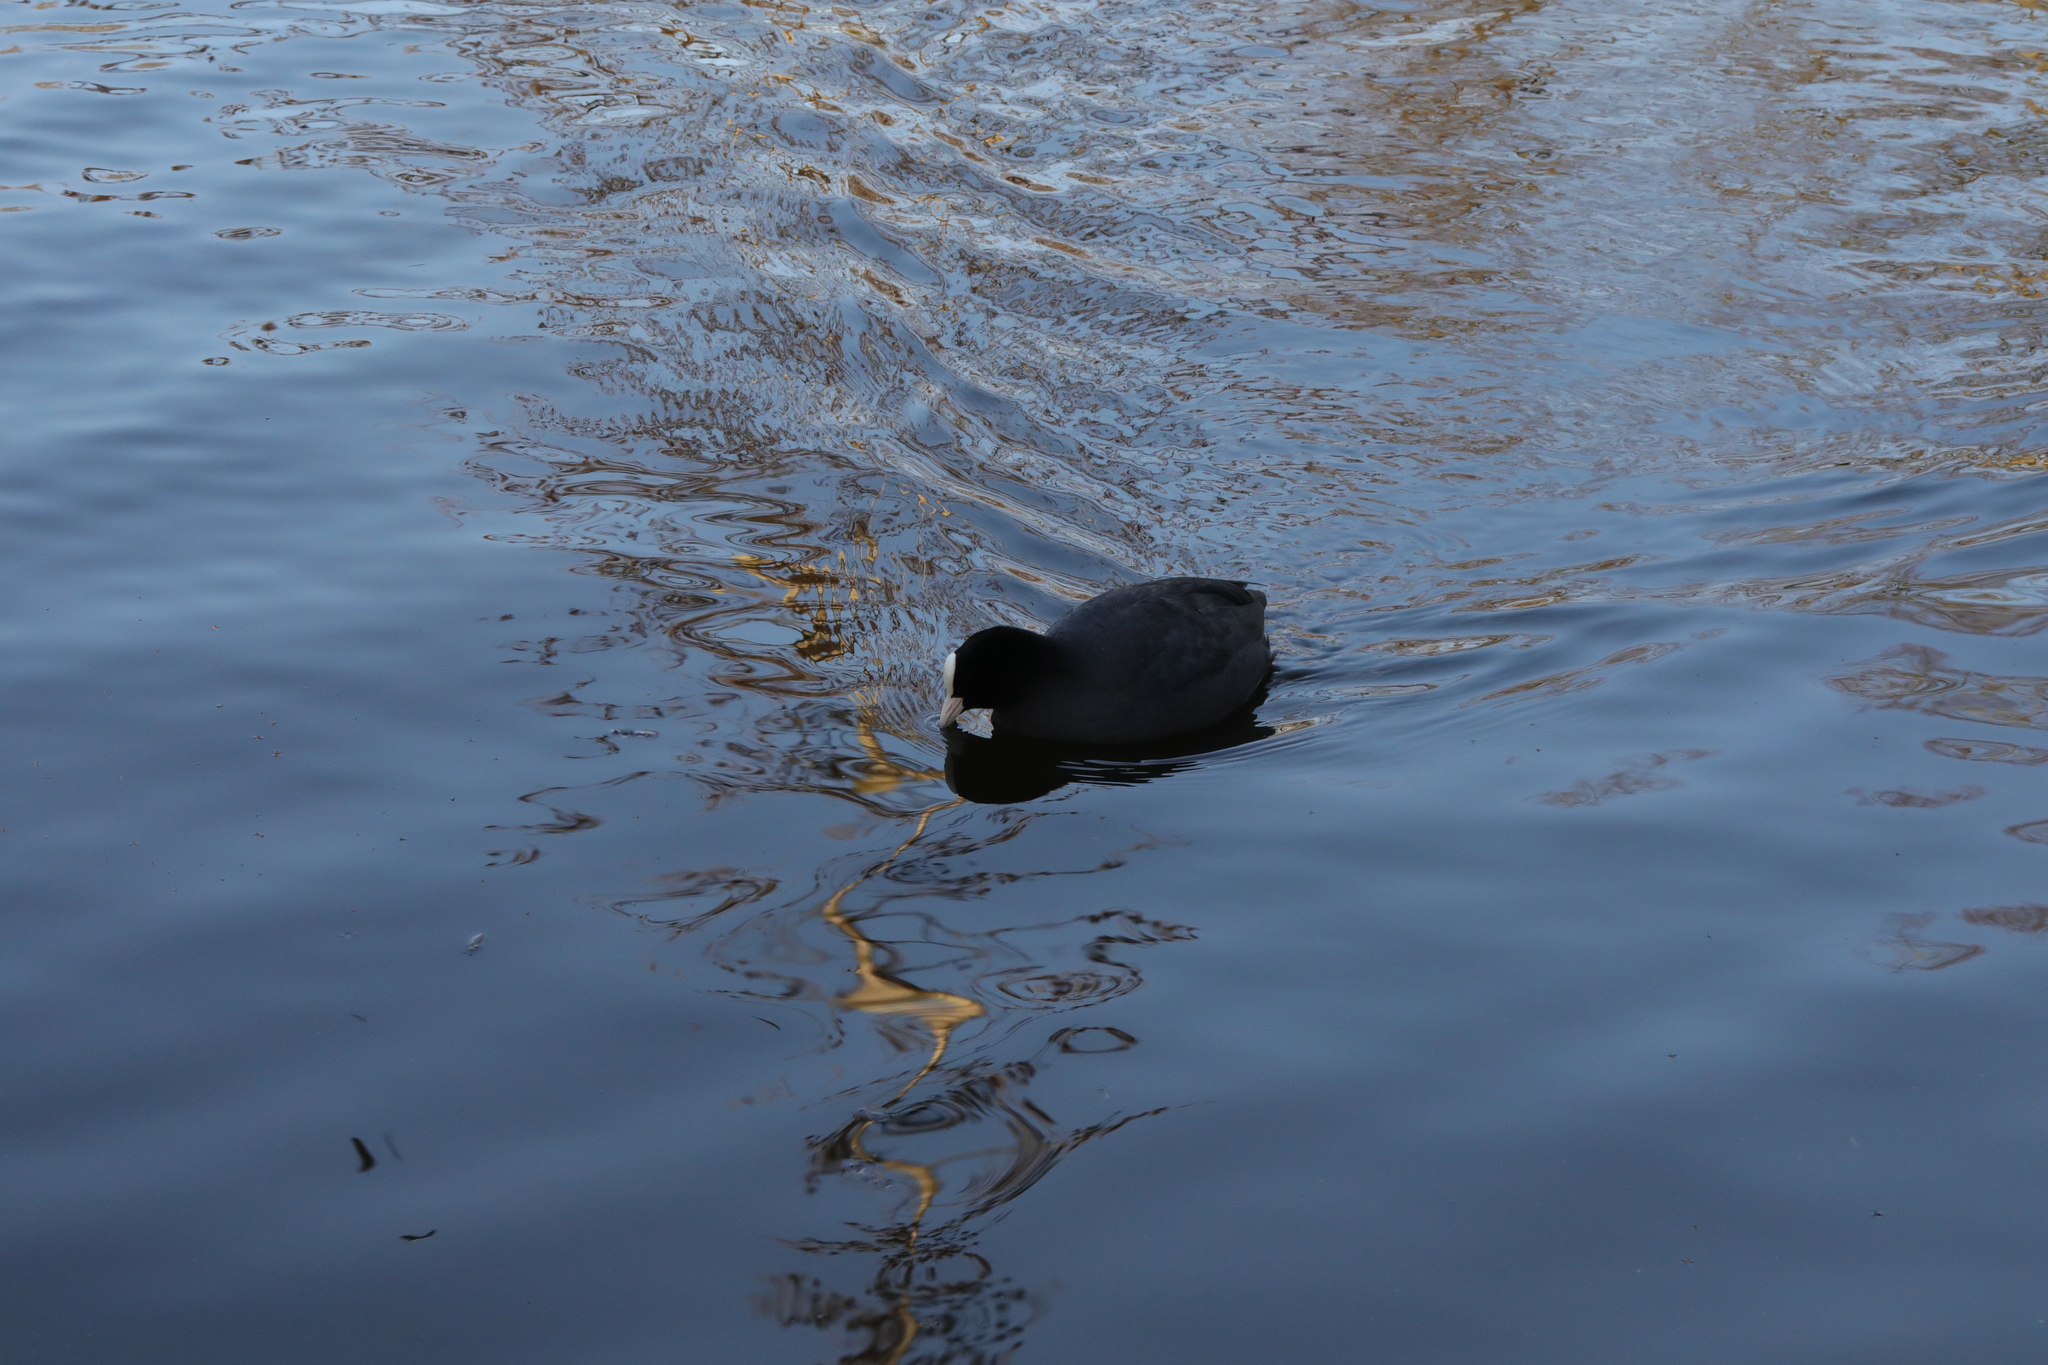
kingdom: Animalia
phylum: Chordata
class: Aves
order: Gruiformes
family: Rallidae
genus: Fulica
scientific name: Fulica atra
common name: Eurasian coot
